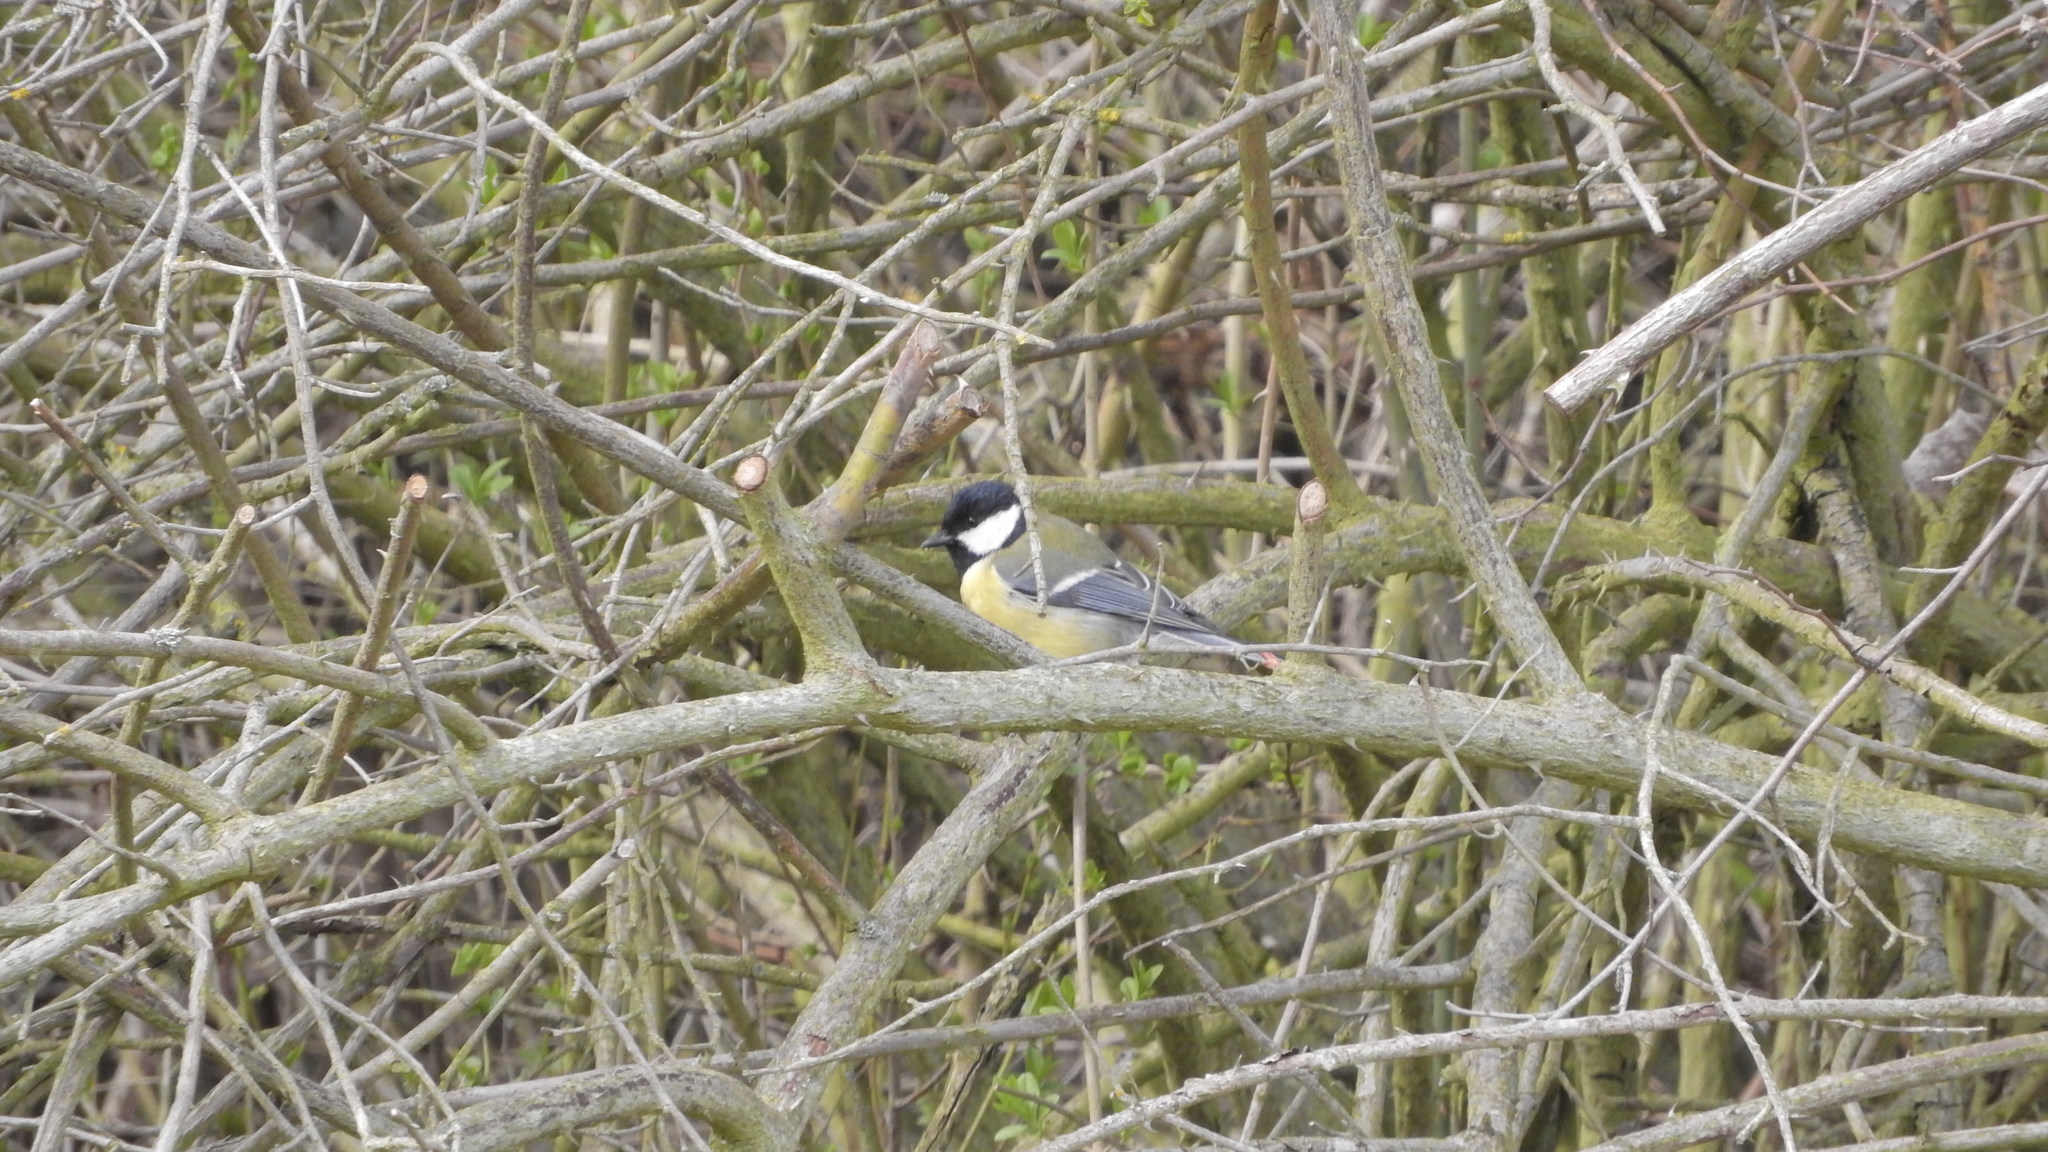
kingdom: Animalia
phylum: Chordata
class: Aves
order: Passeriformes
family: Paridae
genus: Parus
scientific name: Parus major
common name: Great tit
